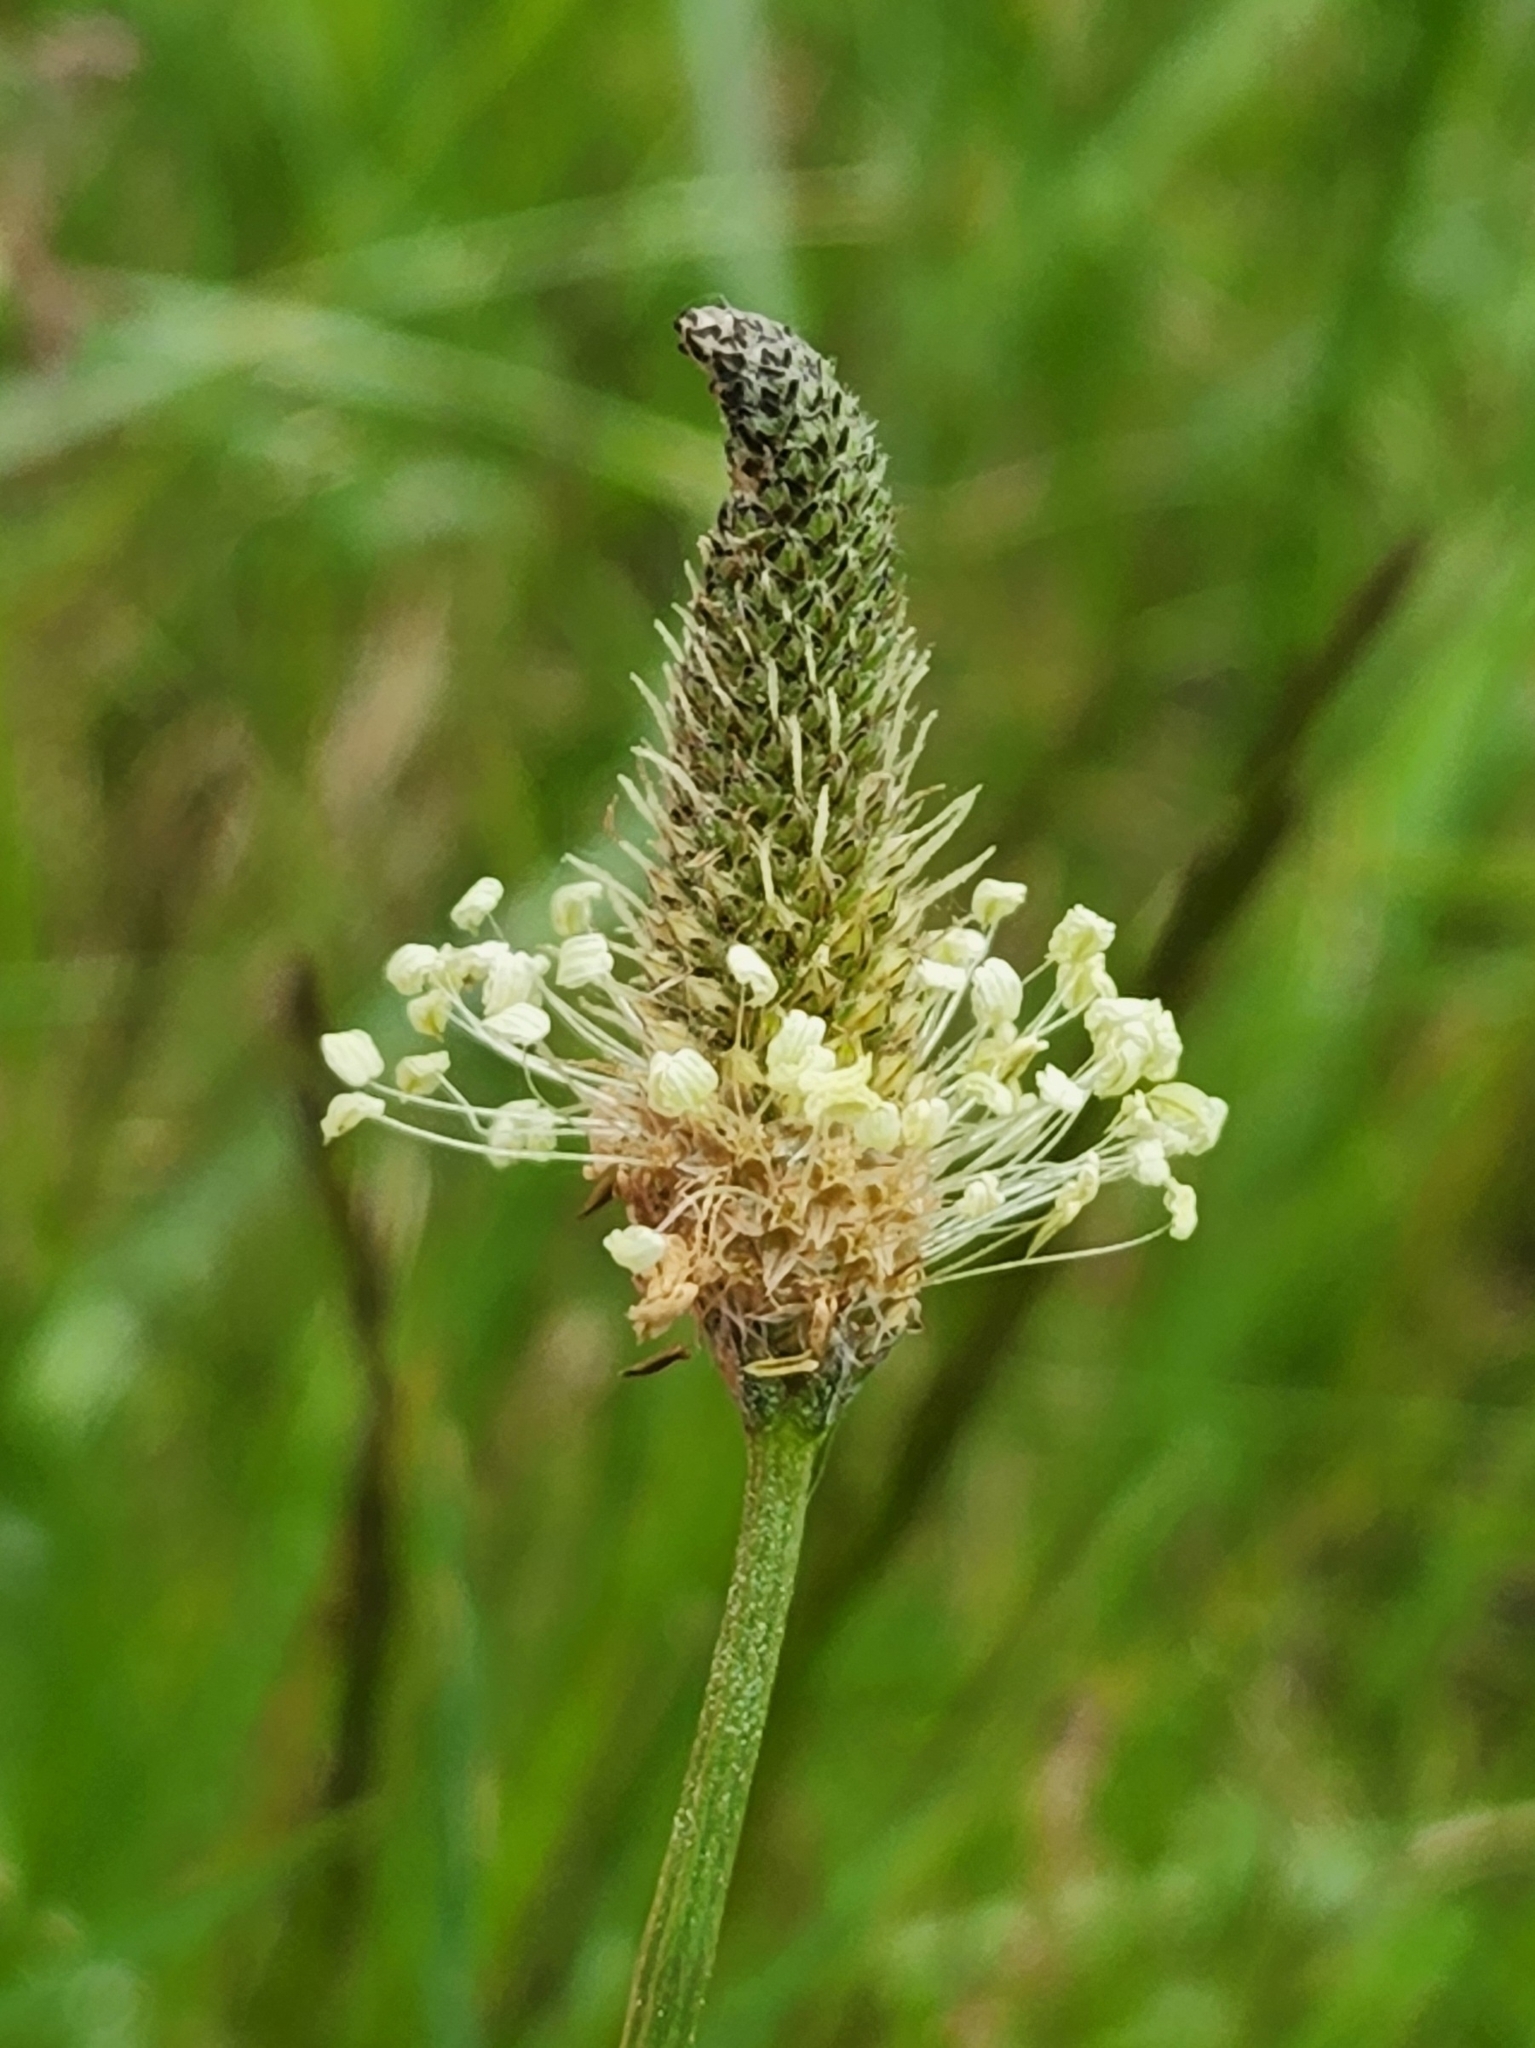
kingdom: Plantae
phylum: Tracheophyta
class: Magnoliopsida
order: Lamiales
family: Plantaginaceae
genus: Plantago
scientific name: Plantago lanceolata
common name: Ribwort plantain
